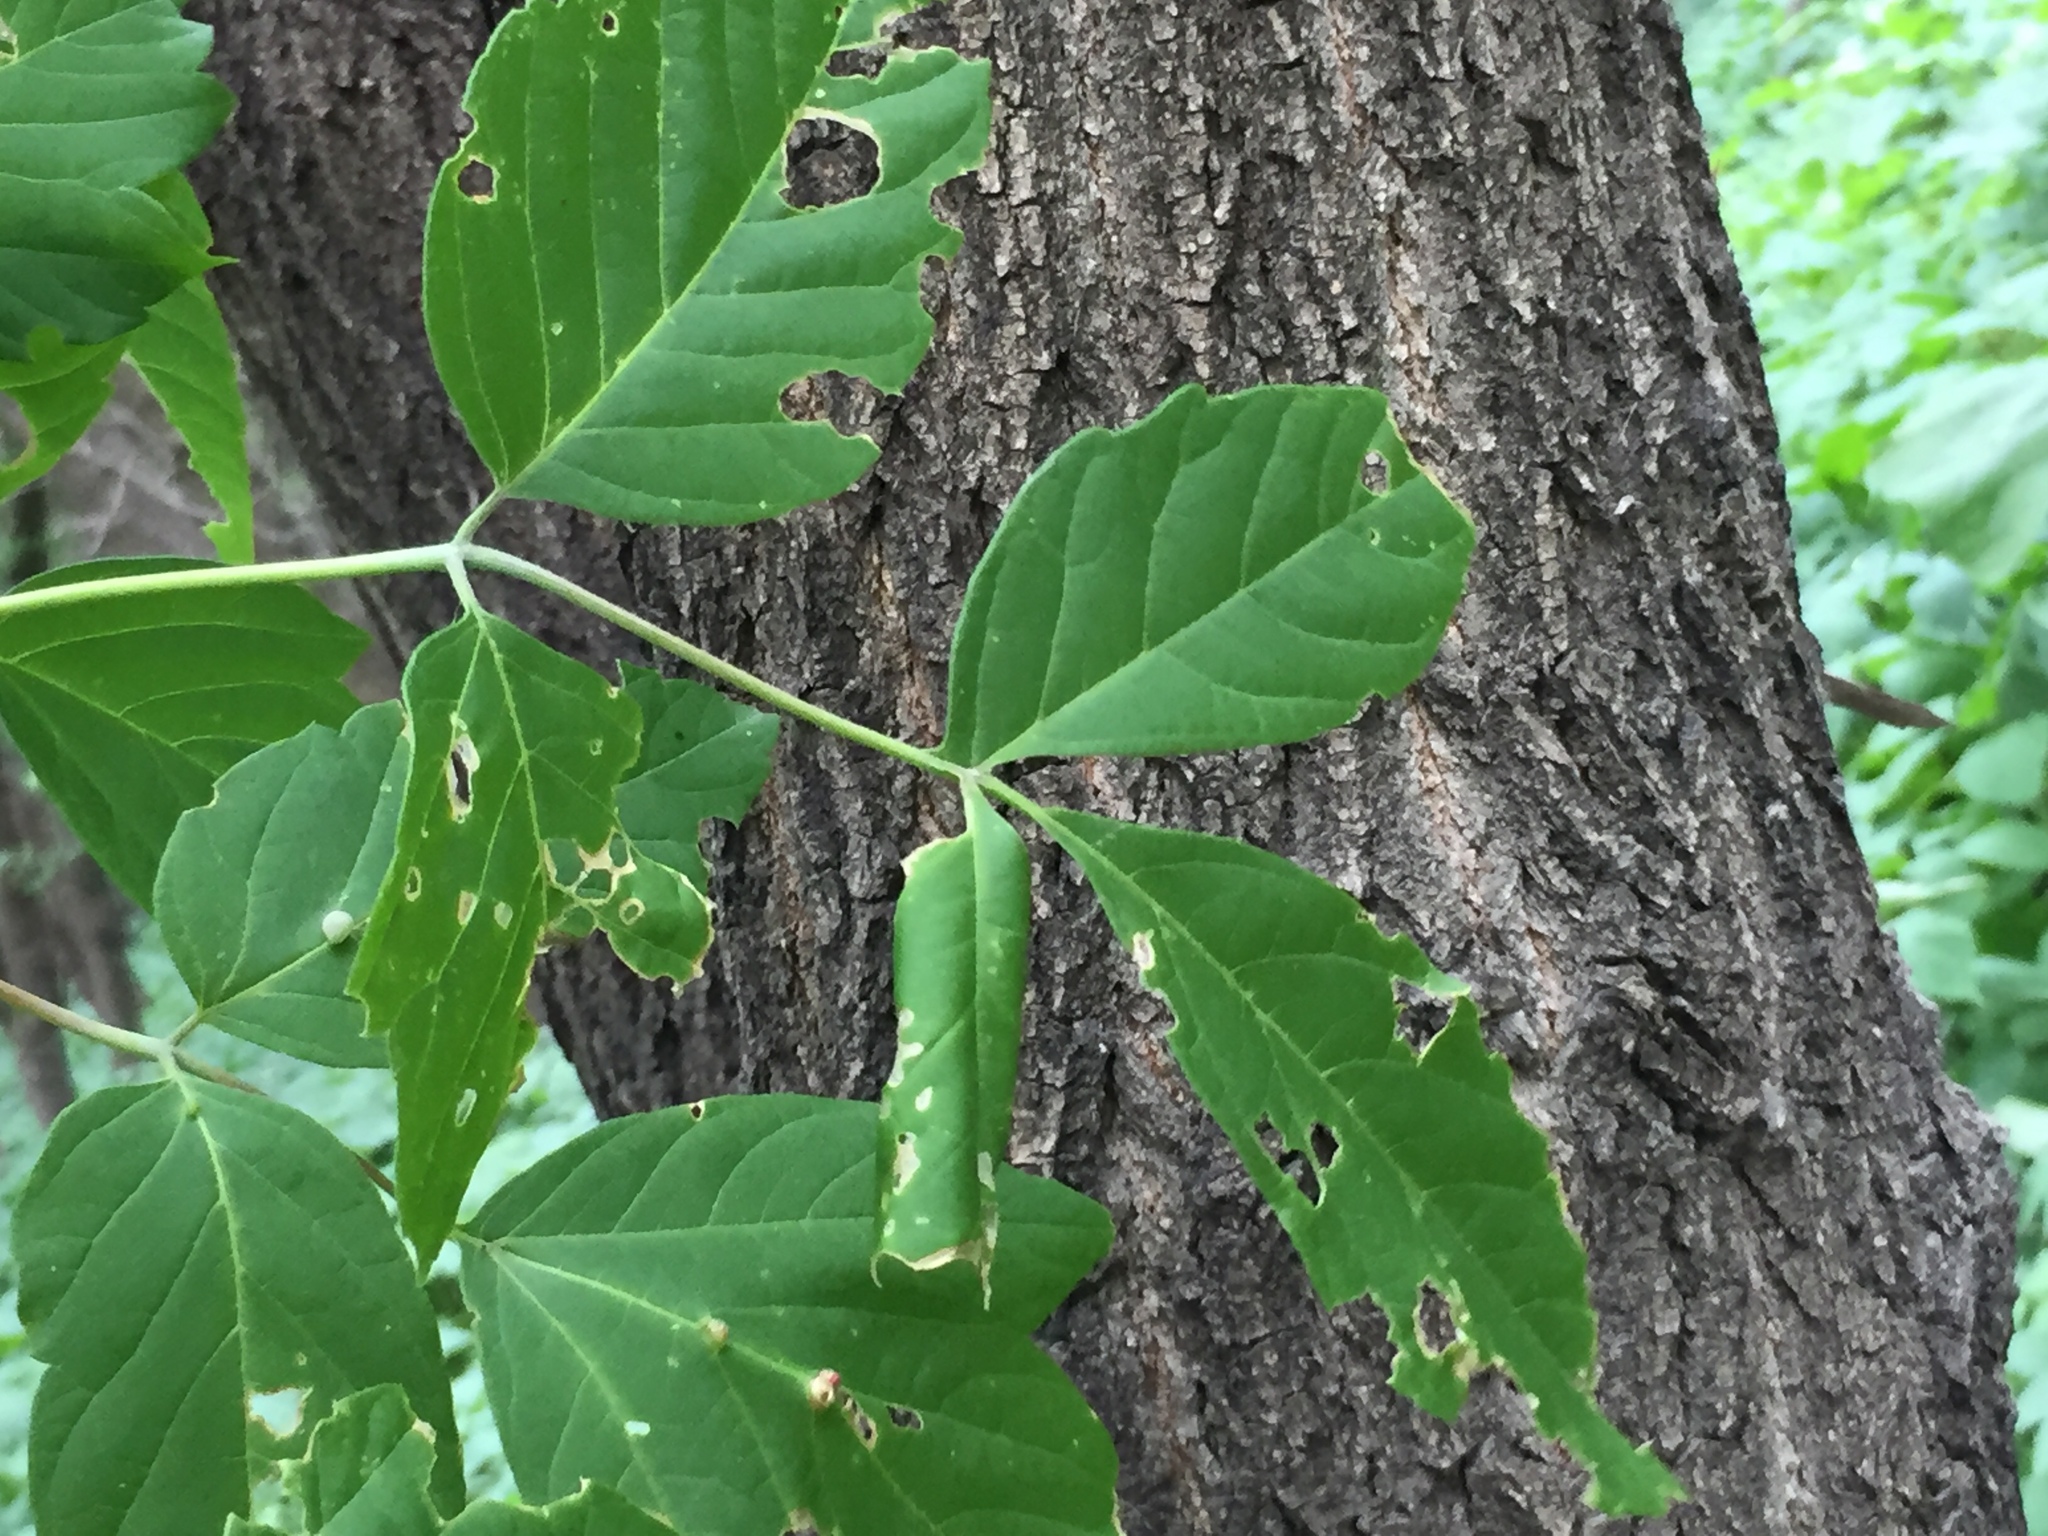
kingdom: Plantae
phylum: Tracheophyta
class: Magnoliopsida
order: Sapindales
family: Sapindaceae
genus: Acer
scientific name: Acer negundo
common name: Ashleaf maple
